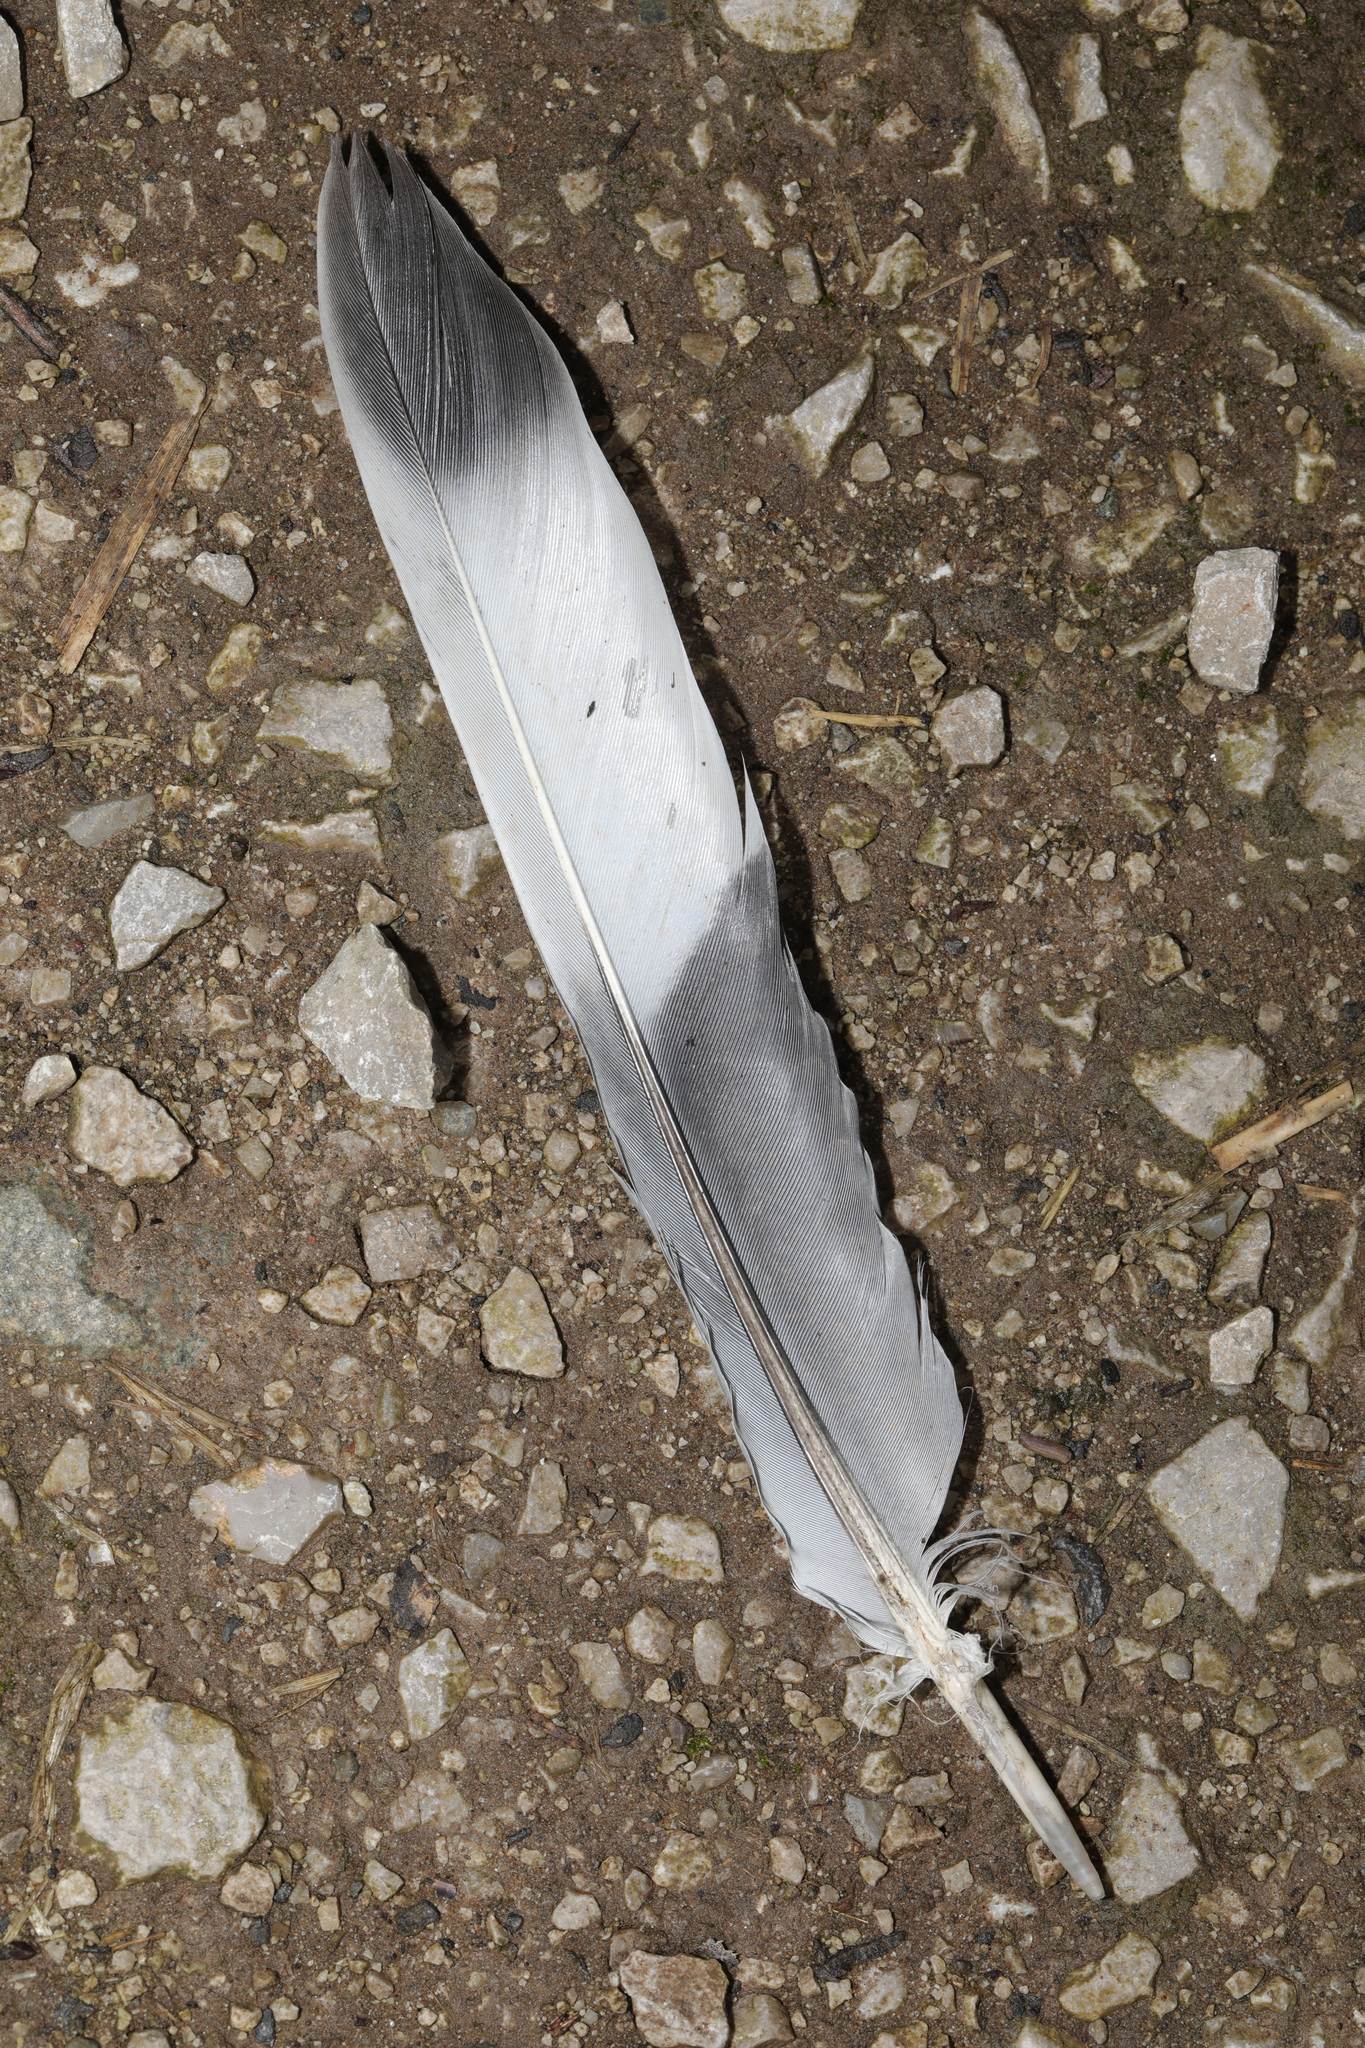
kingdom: Animalia
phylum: Chordata
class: Aves
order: Columbiformes
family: Columbidae
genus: Columba
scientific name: Columba palumbus
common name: Common wood pigeon
